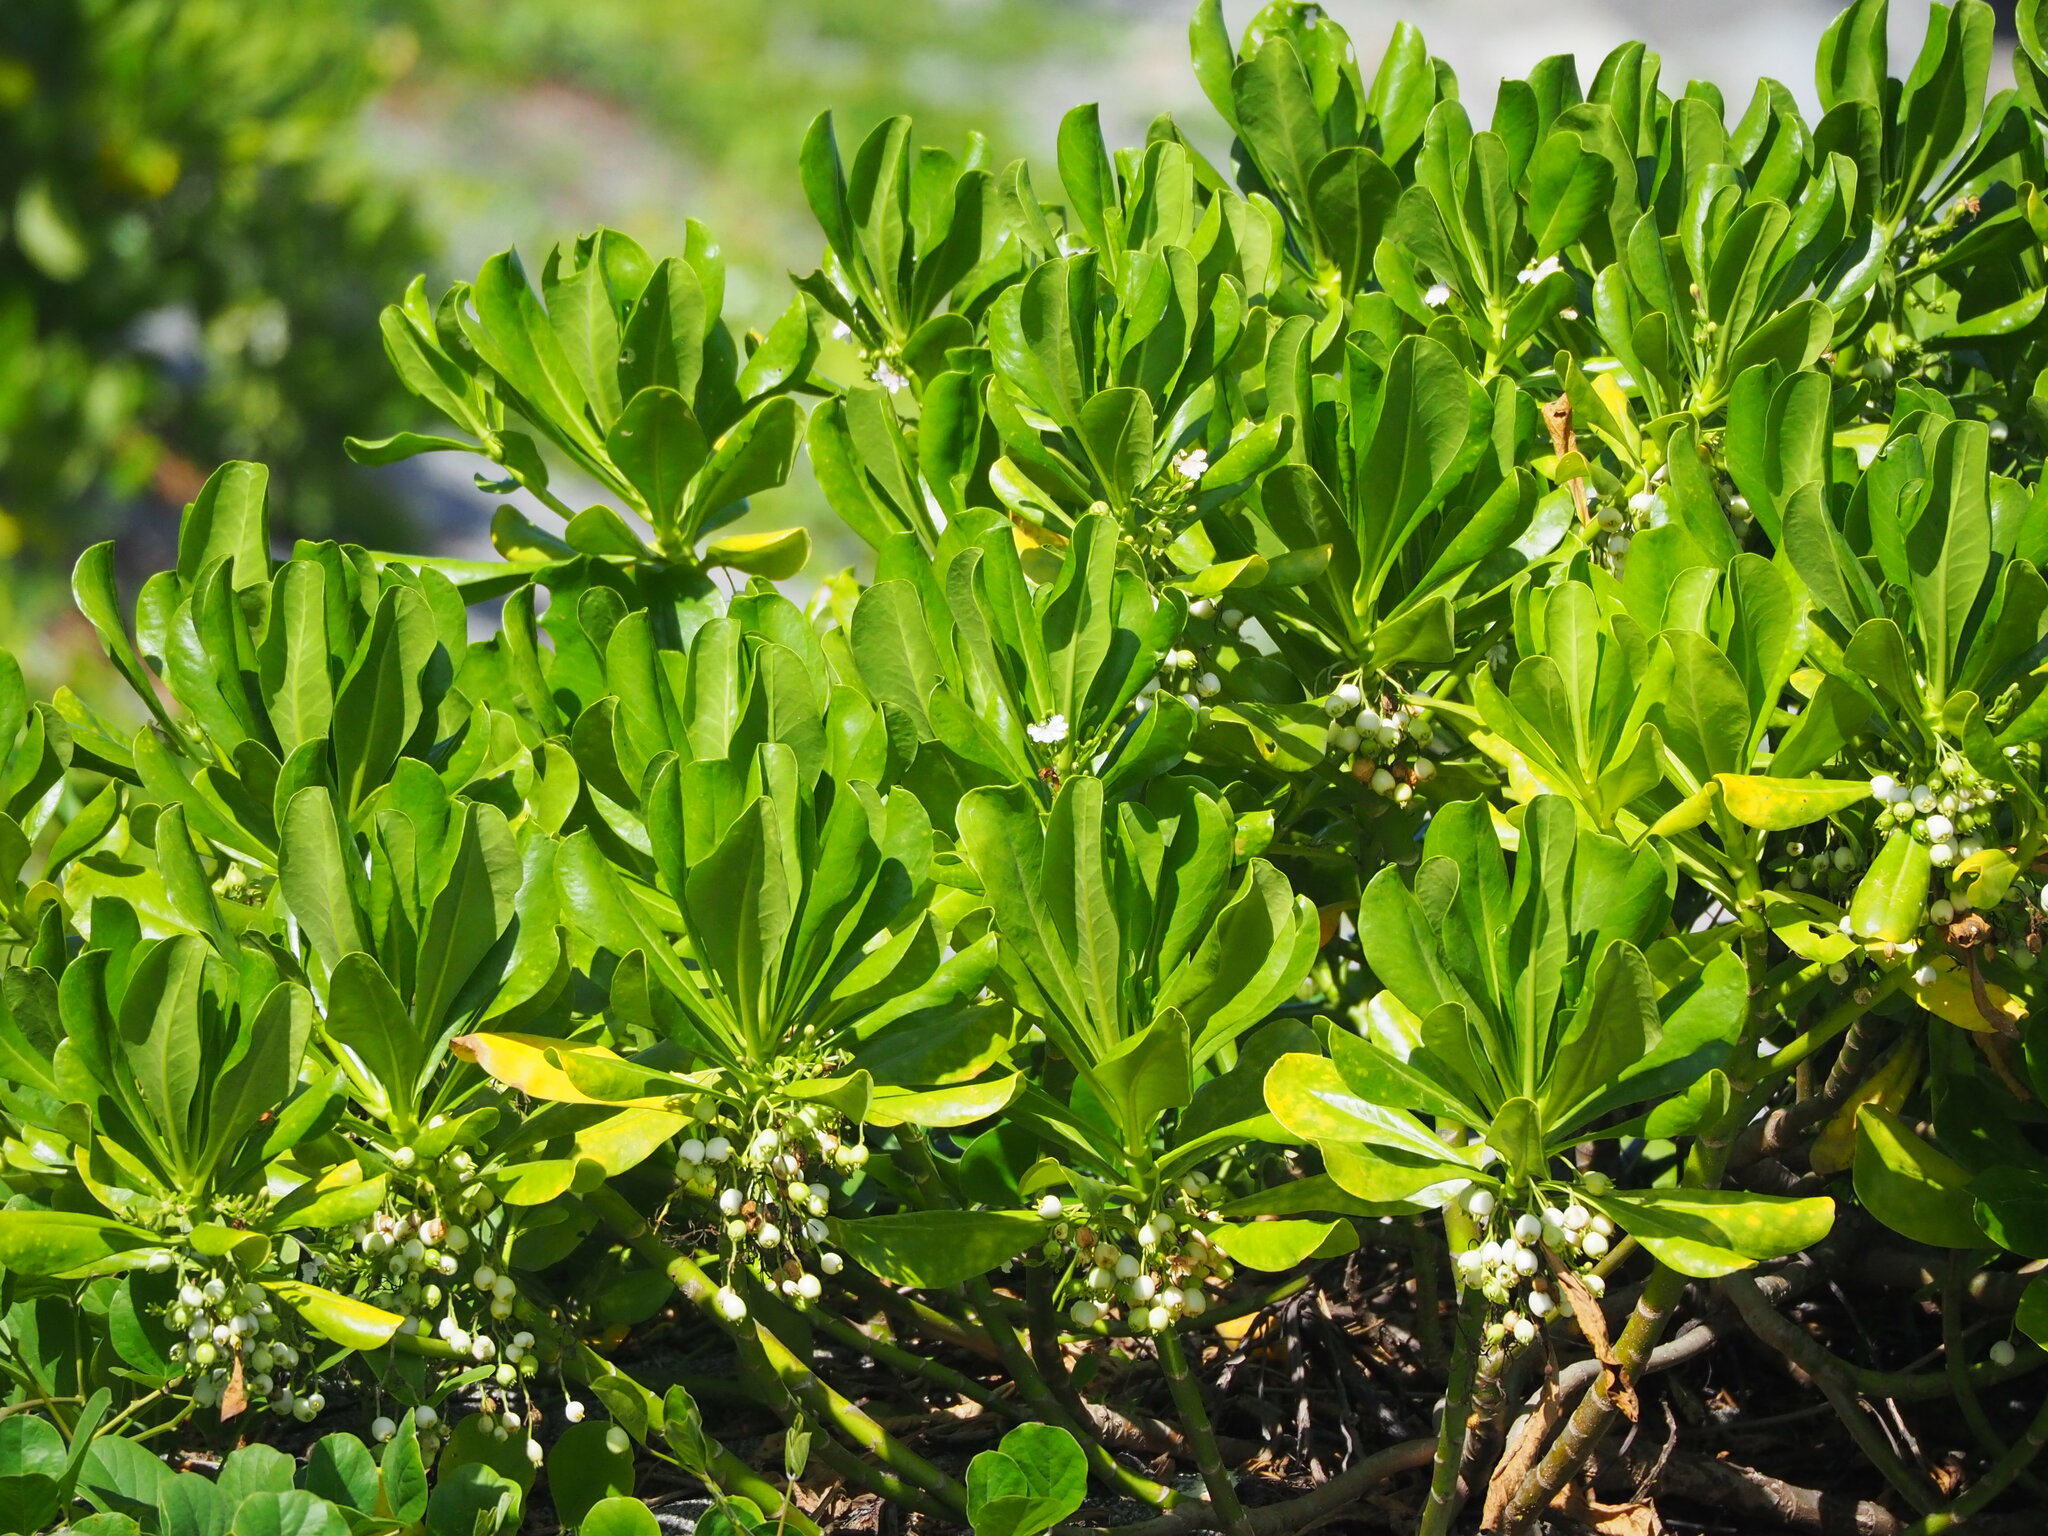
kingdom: Plantae
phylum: Tracheophyta
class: Magnoliopsida
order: Asterales
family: Goodeniaceae
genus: Scaevola
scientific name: Scaevola taccada
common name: Sea lettucetree
